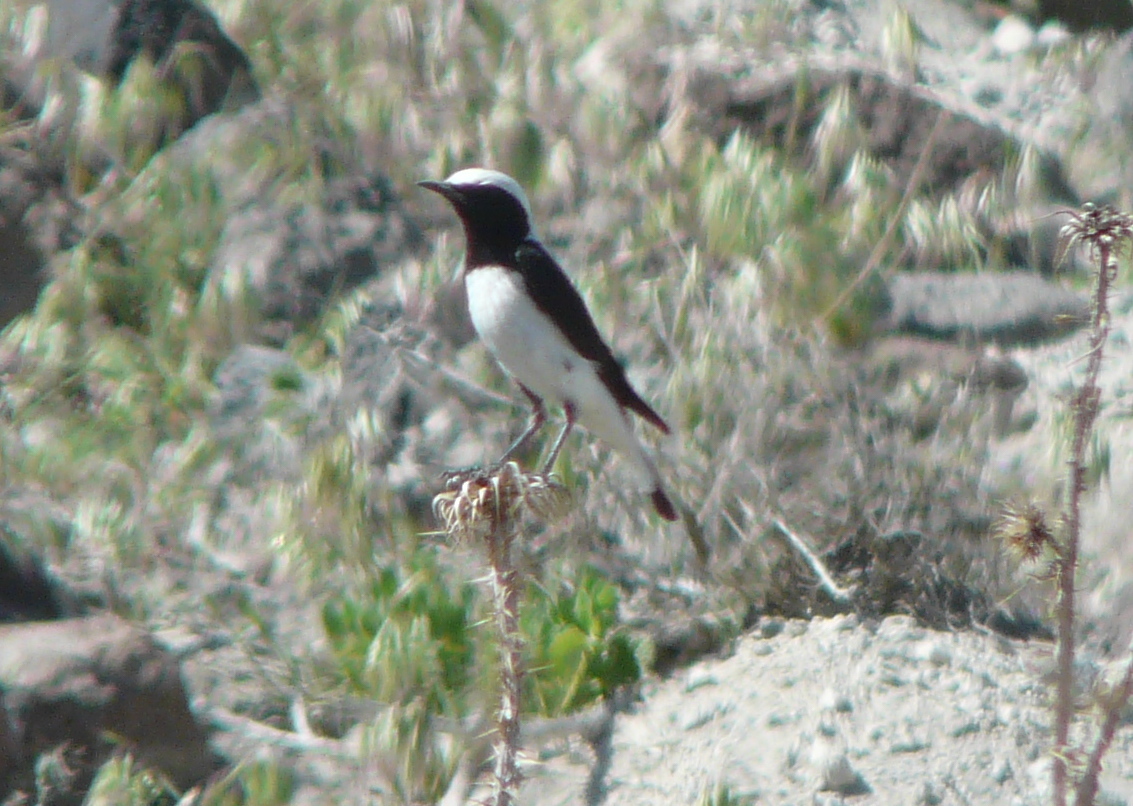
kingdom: Animalia
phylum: Chordata
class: Aves
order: Passeriformes
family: Muscicapidae
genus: Oenanthe
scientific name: Oenanthe finschii
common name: Finsch's wheatear
